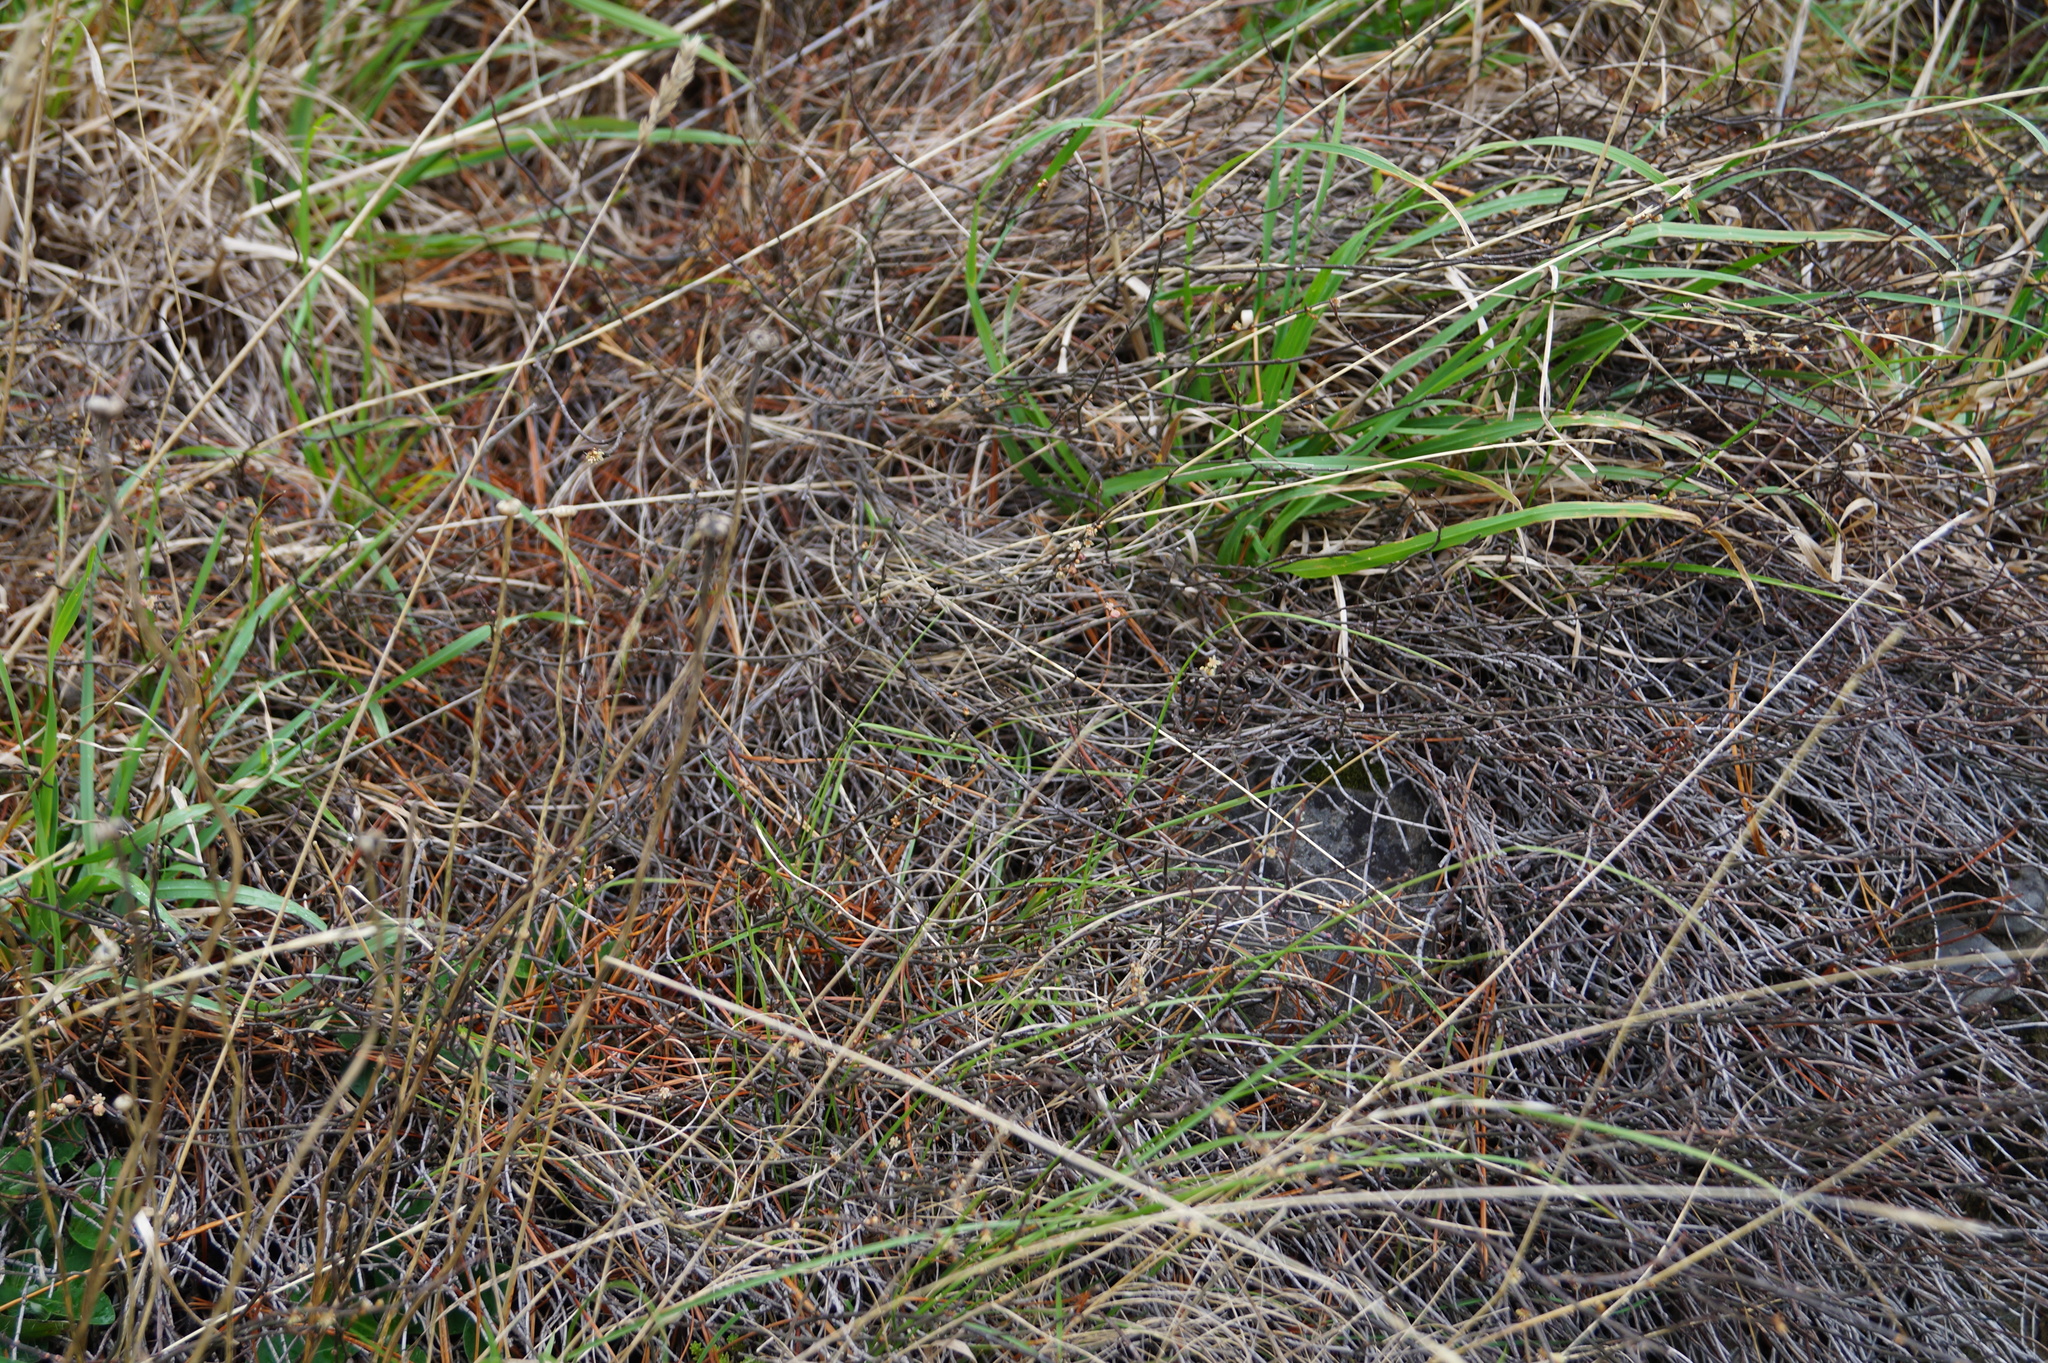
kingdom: Plantae
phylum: Tracheophyta
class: Magnoliopsida
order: Caryophyllales
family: Polygonaceae
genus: Muehlenbeckia
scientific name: Muehlenbeckia ephedroides
